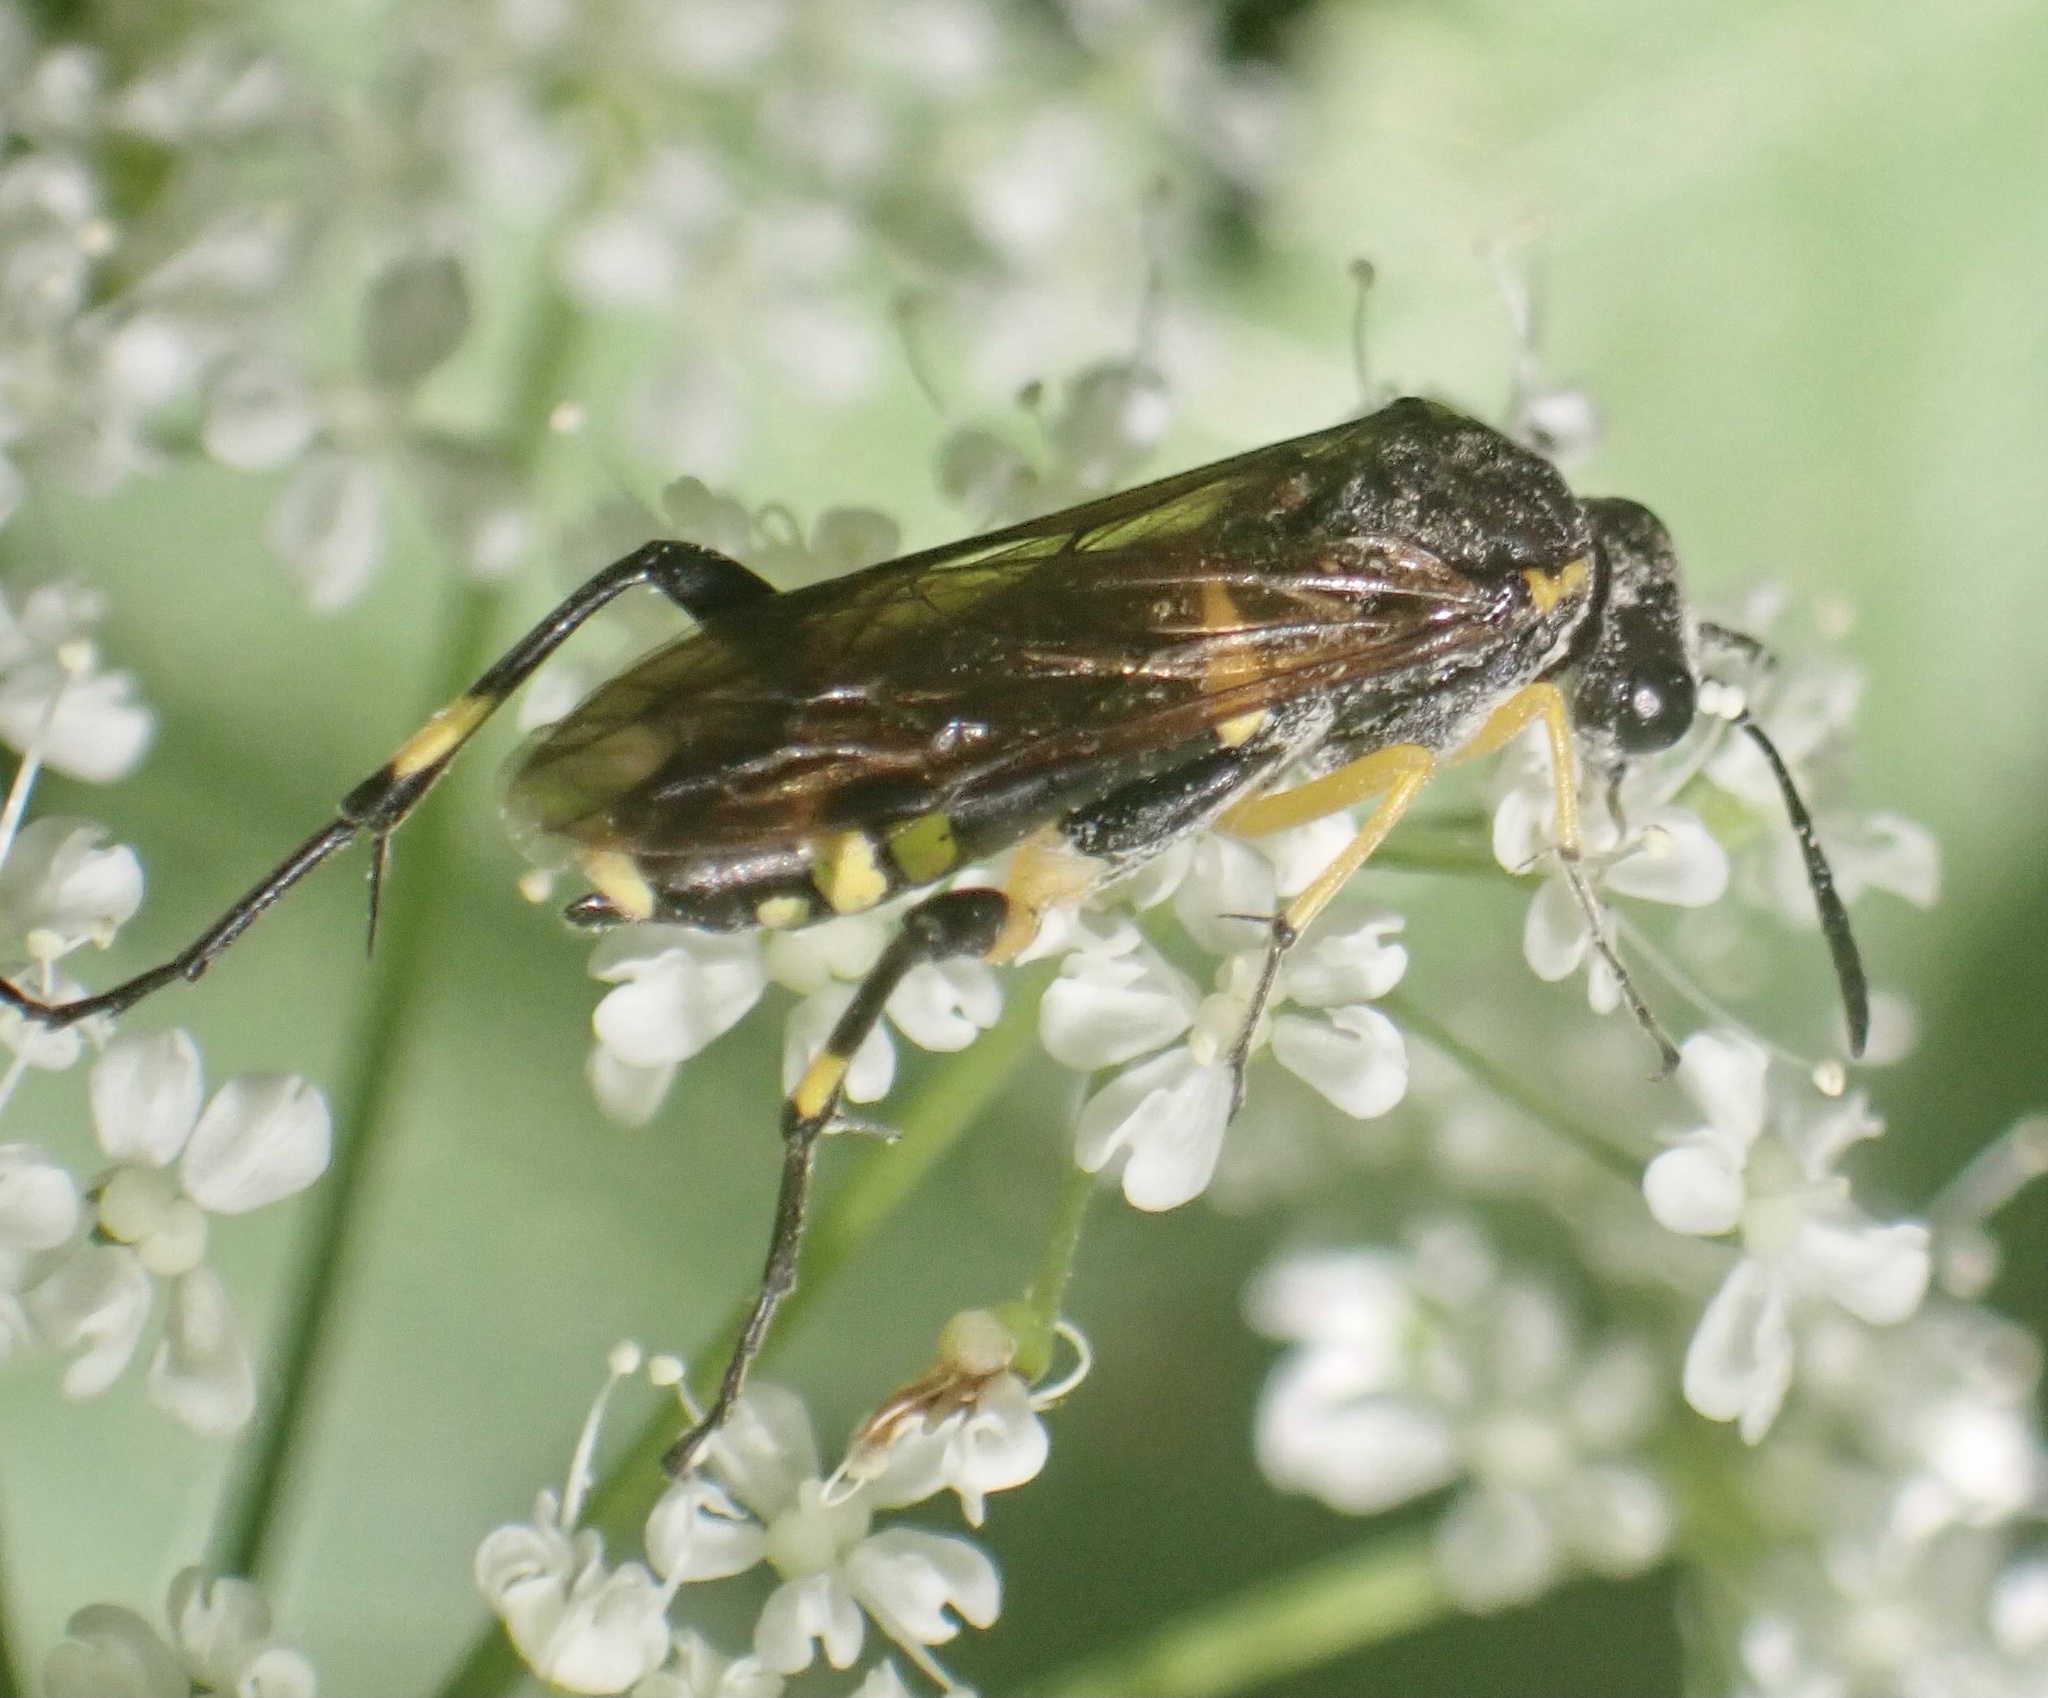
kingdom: Animalia
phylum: Arthropoda
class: Insecta
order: Hymenoptera
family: Tenthredinidae
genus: Macrophya
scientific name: Macrophya montana
